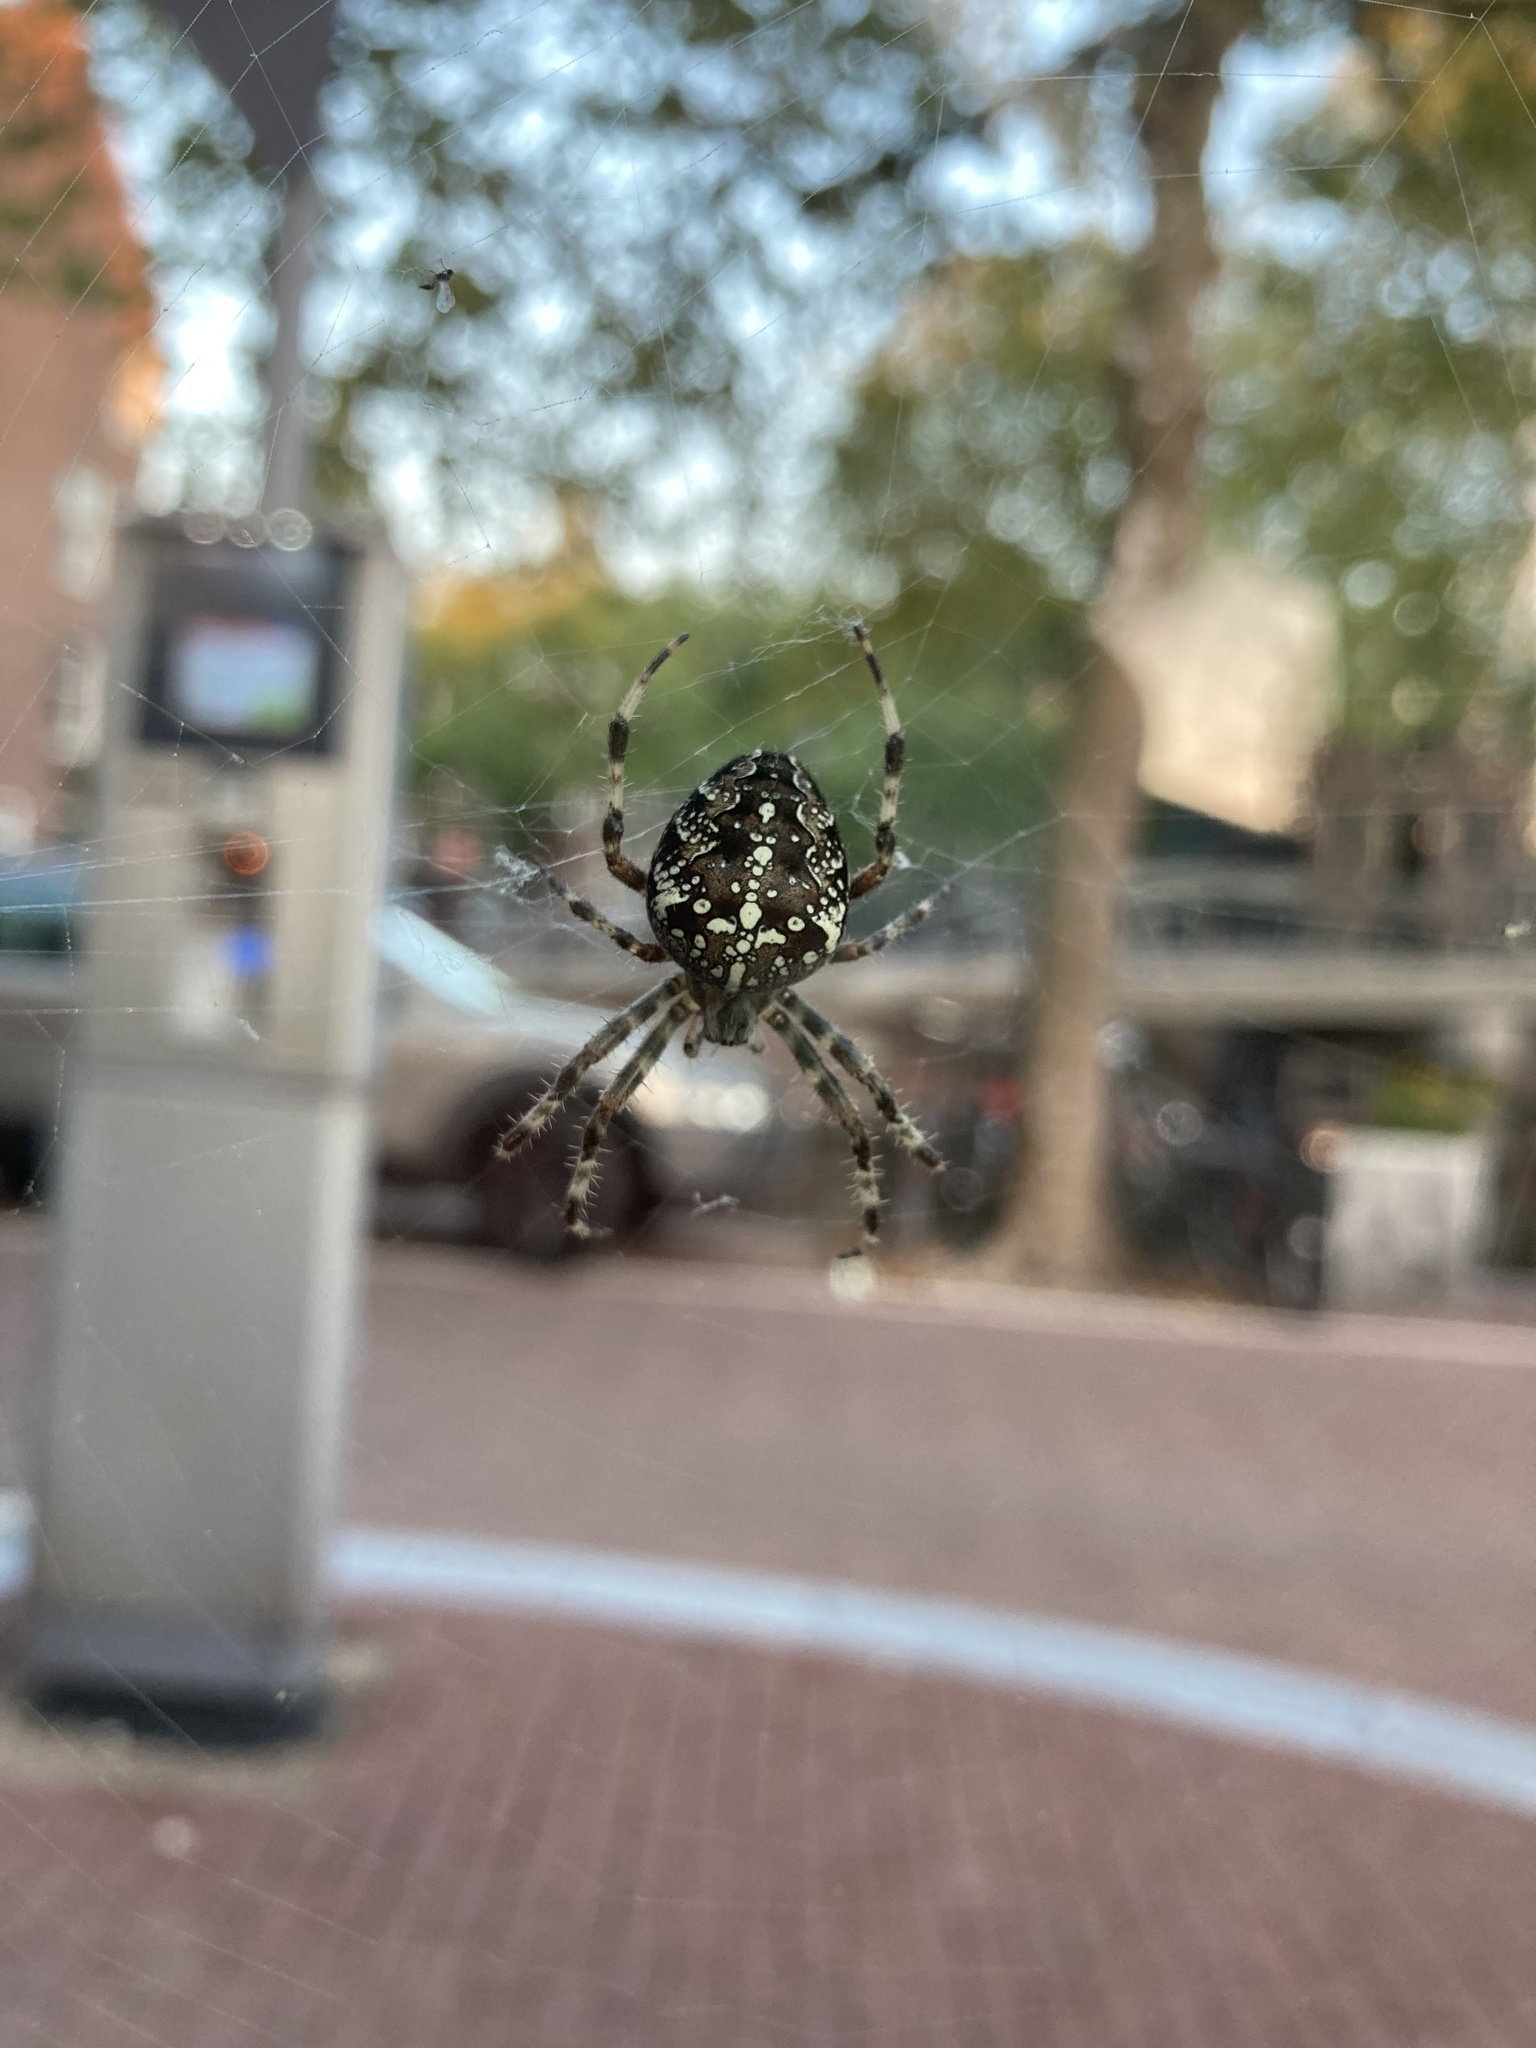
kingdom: Animalia
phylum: Arthropoda
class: Arachnida
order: Araneae
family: Araneidae
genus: Araneus
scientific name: Araneus diadematus
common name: Cross orbweaver
